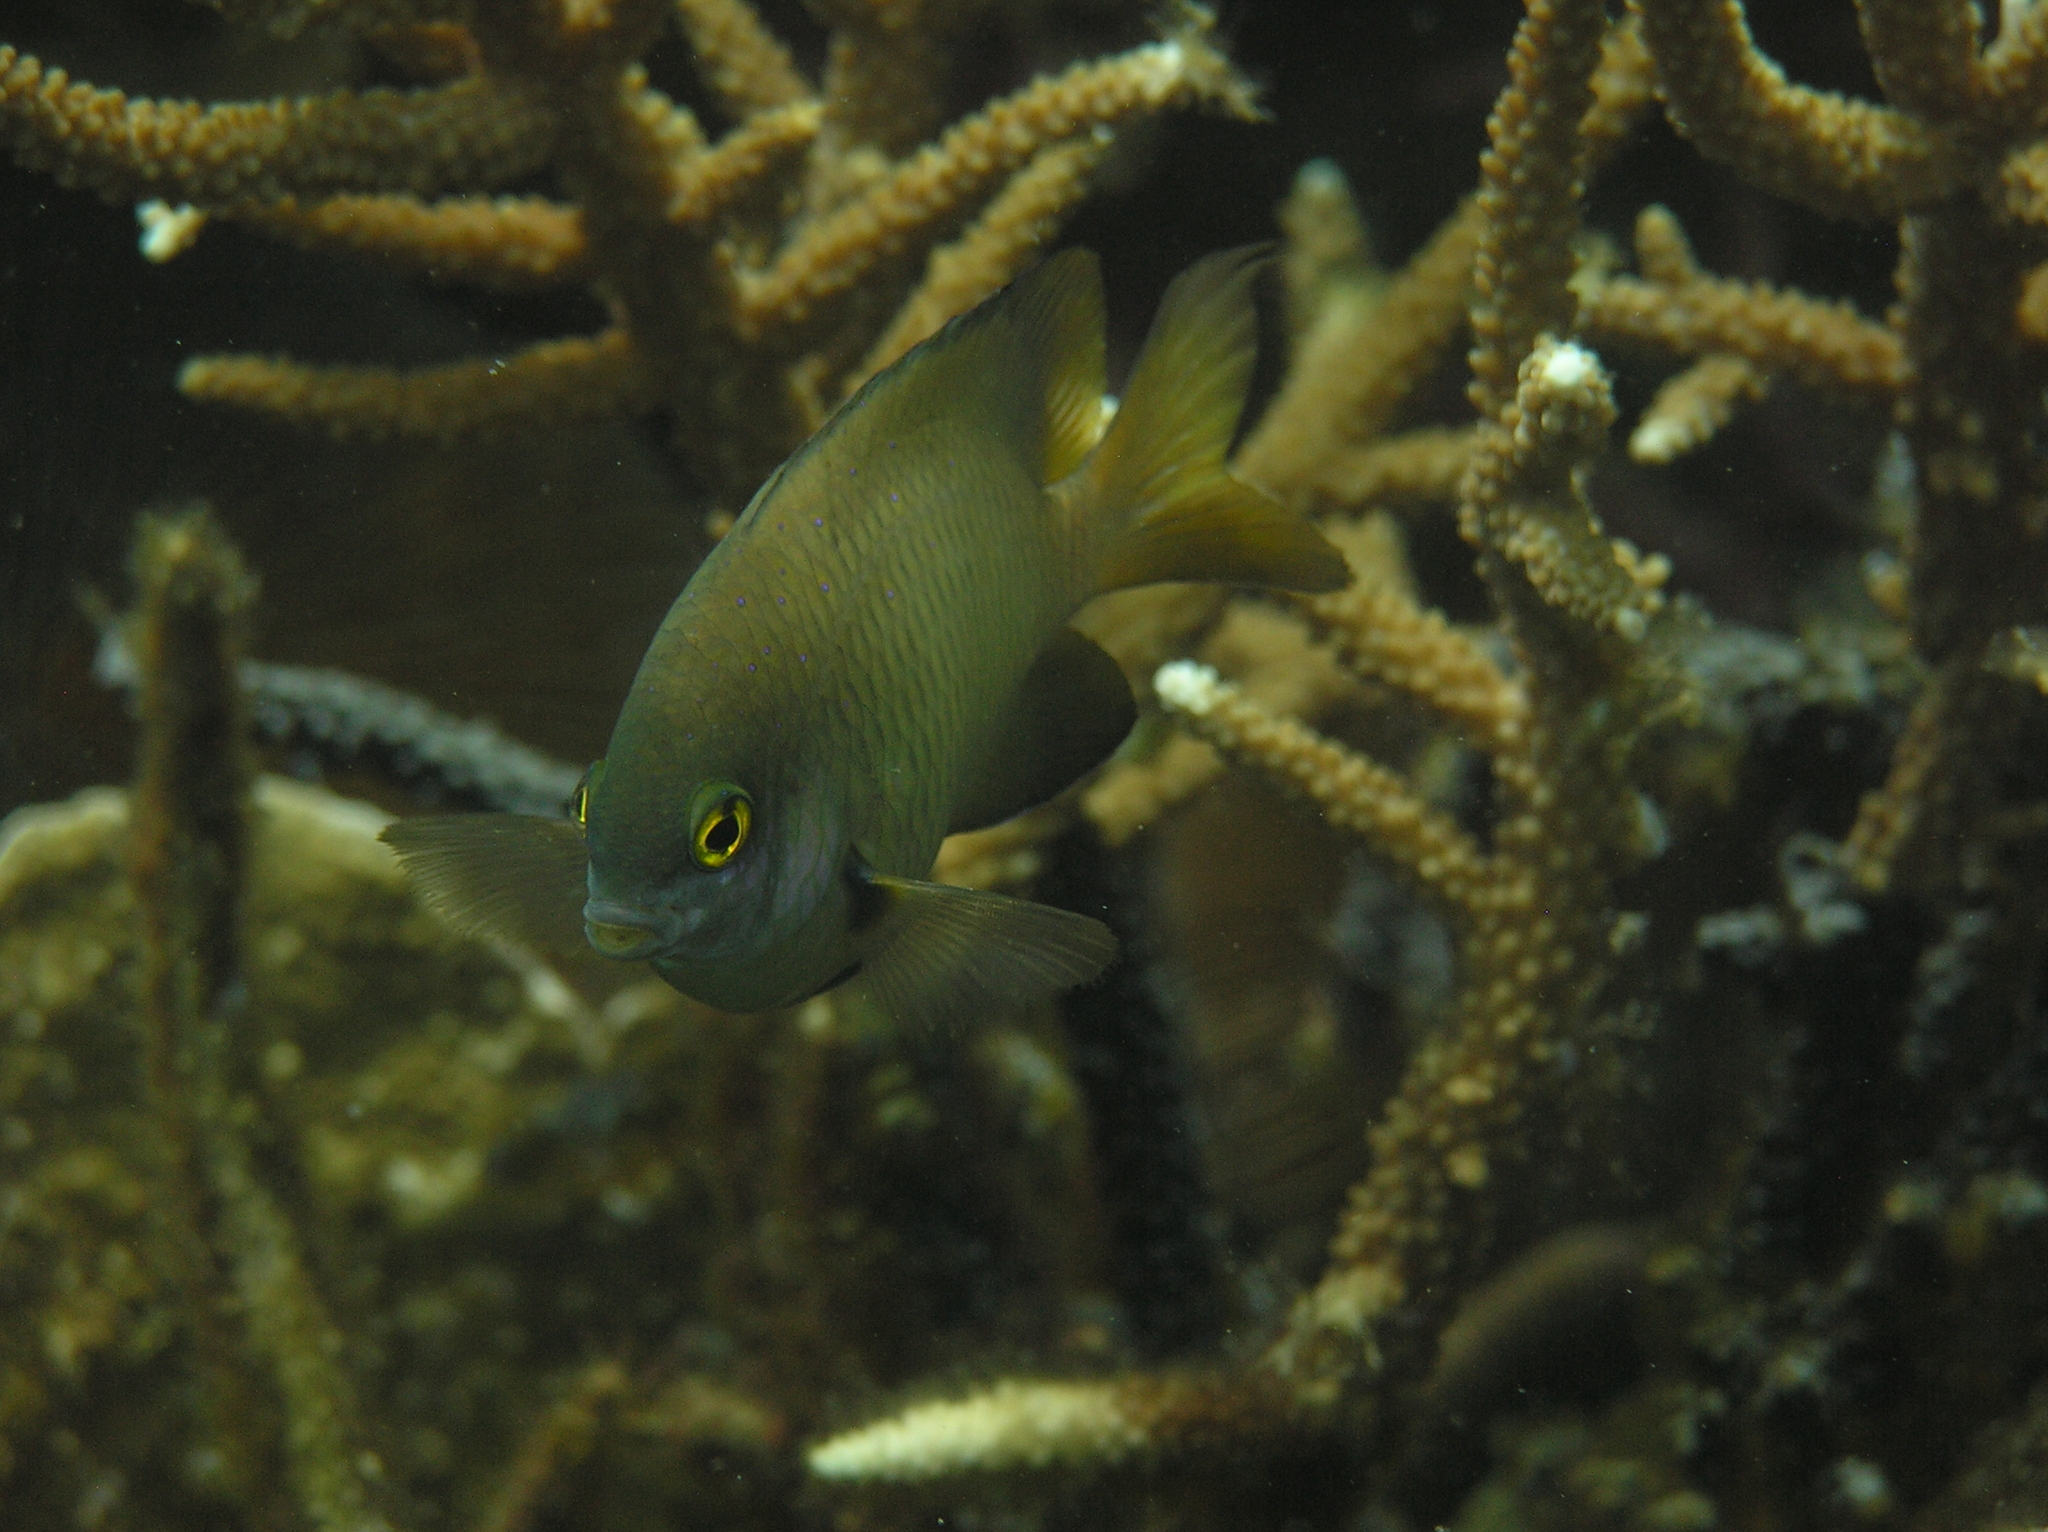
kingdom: Animalia
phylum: Chordata
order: Perciformes
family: Pomacentridae
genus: Plectroglyphidodon
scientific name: Plectroglyphidodon lacrymatus
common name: Jewel damsel
